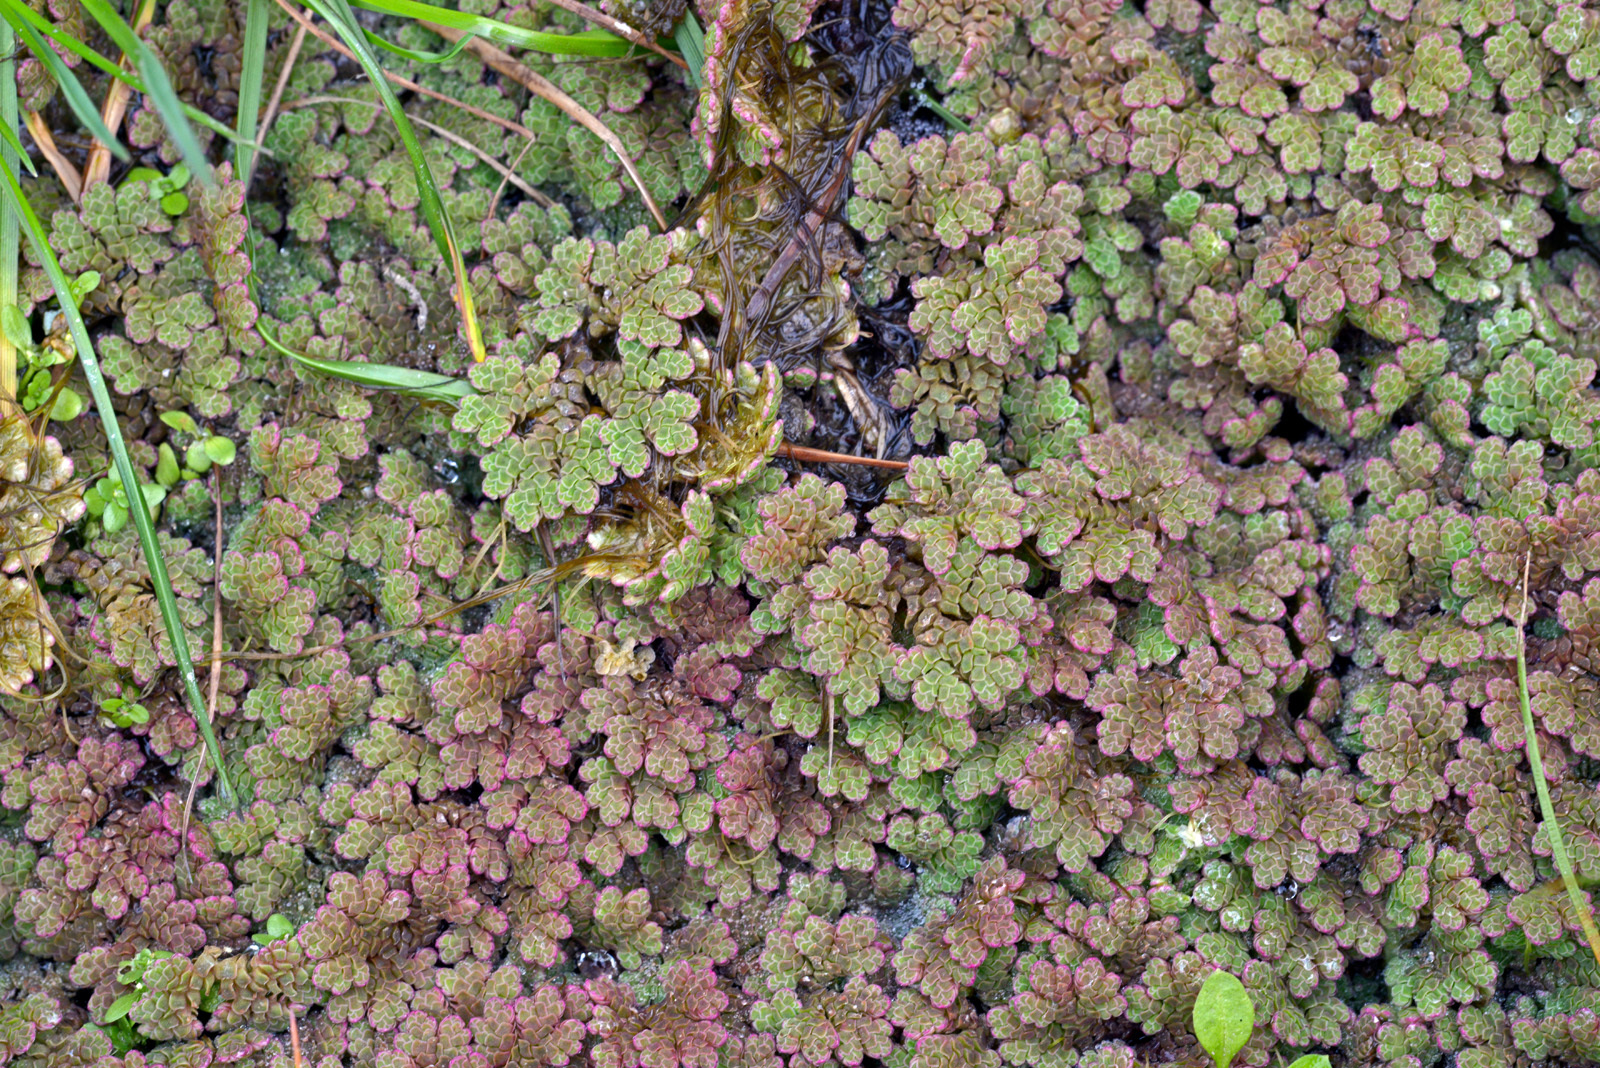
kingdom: Plantae
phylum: Tracheophyta
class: Polypodiopsida
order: Salviniales
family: Salviniaceae
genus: Azolla
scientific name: Azolla rubra
